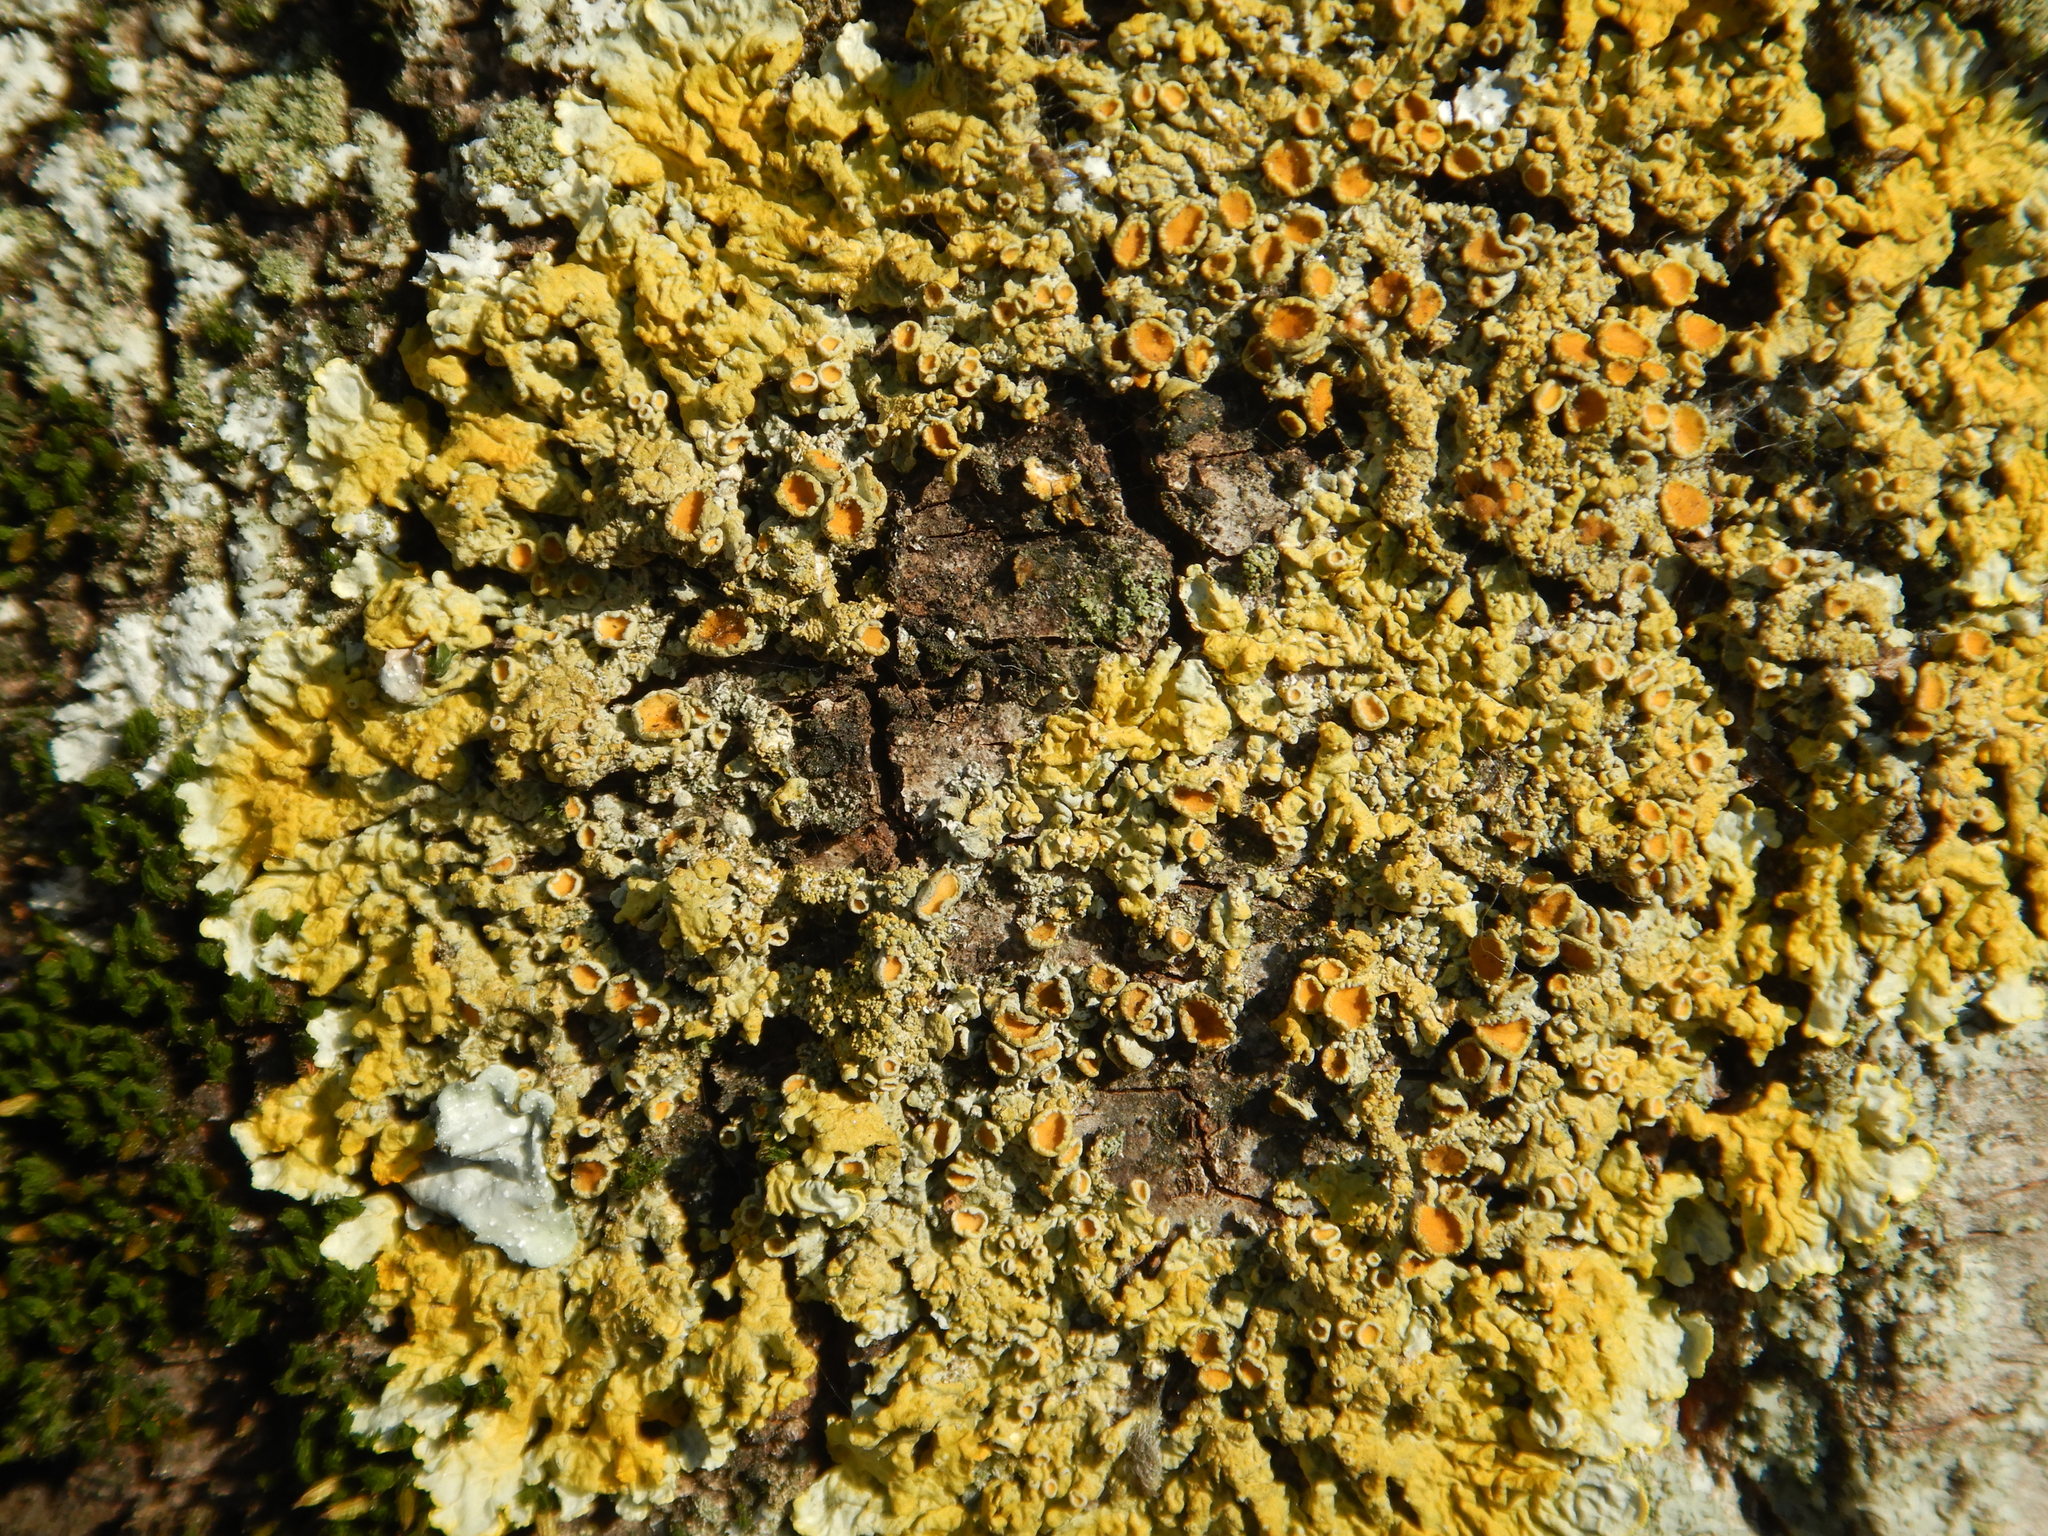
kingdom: Fungi
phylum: Ascomycota
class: Lecanoromycetes
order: Teloschistales
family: Teloschistaceae
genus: Xanthoria
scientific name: Xanthoria parietina
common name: Common orange lichen
